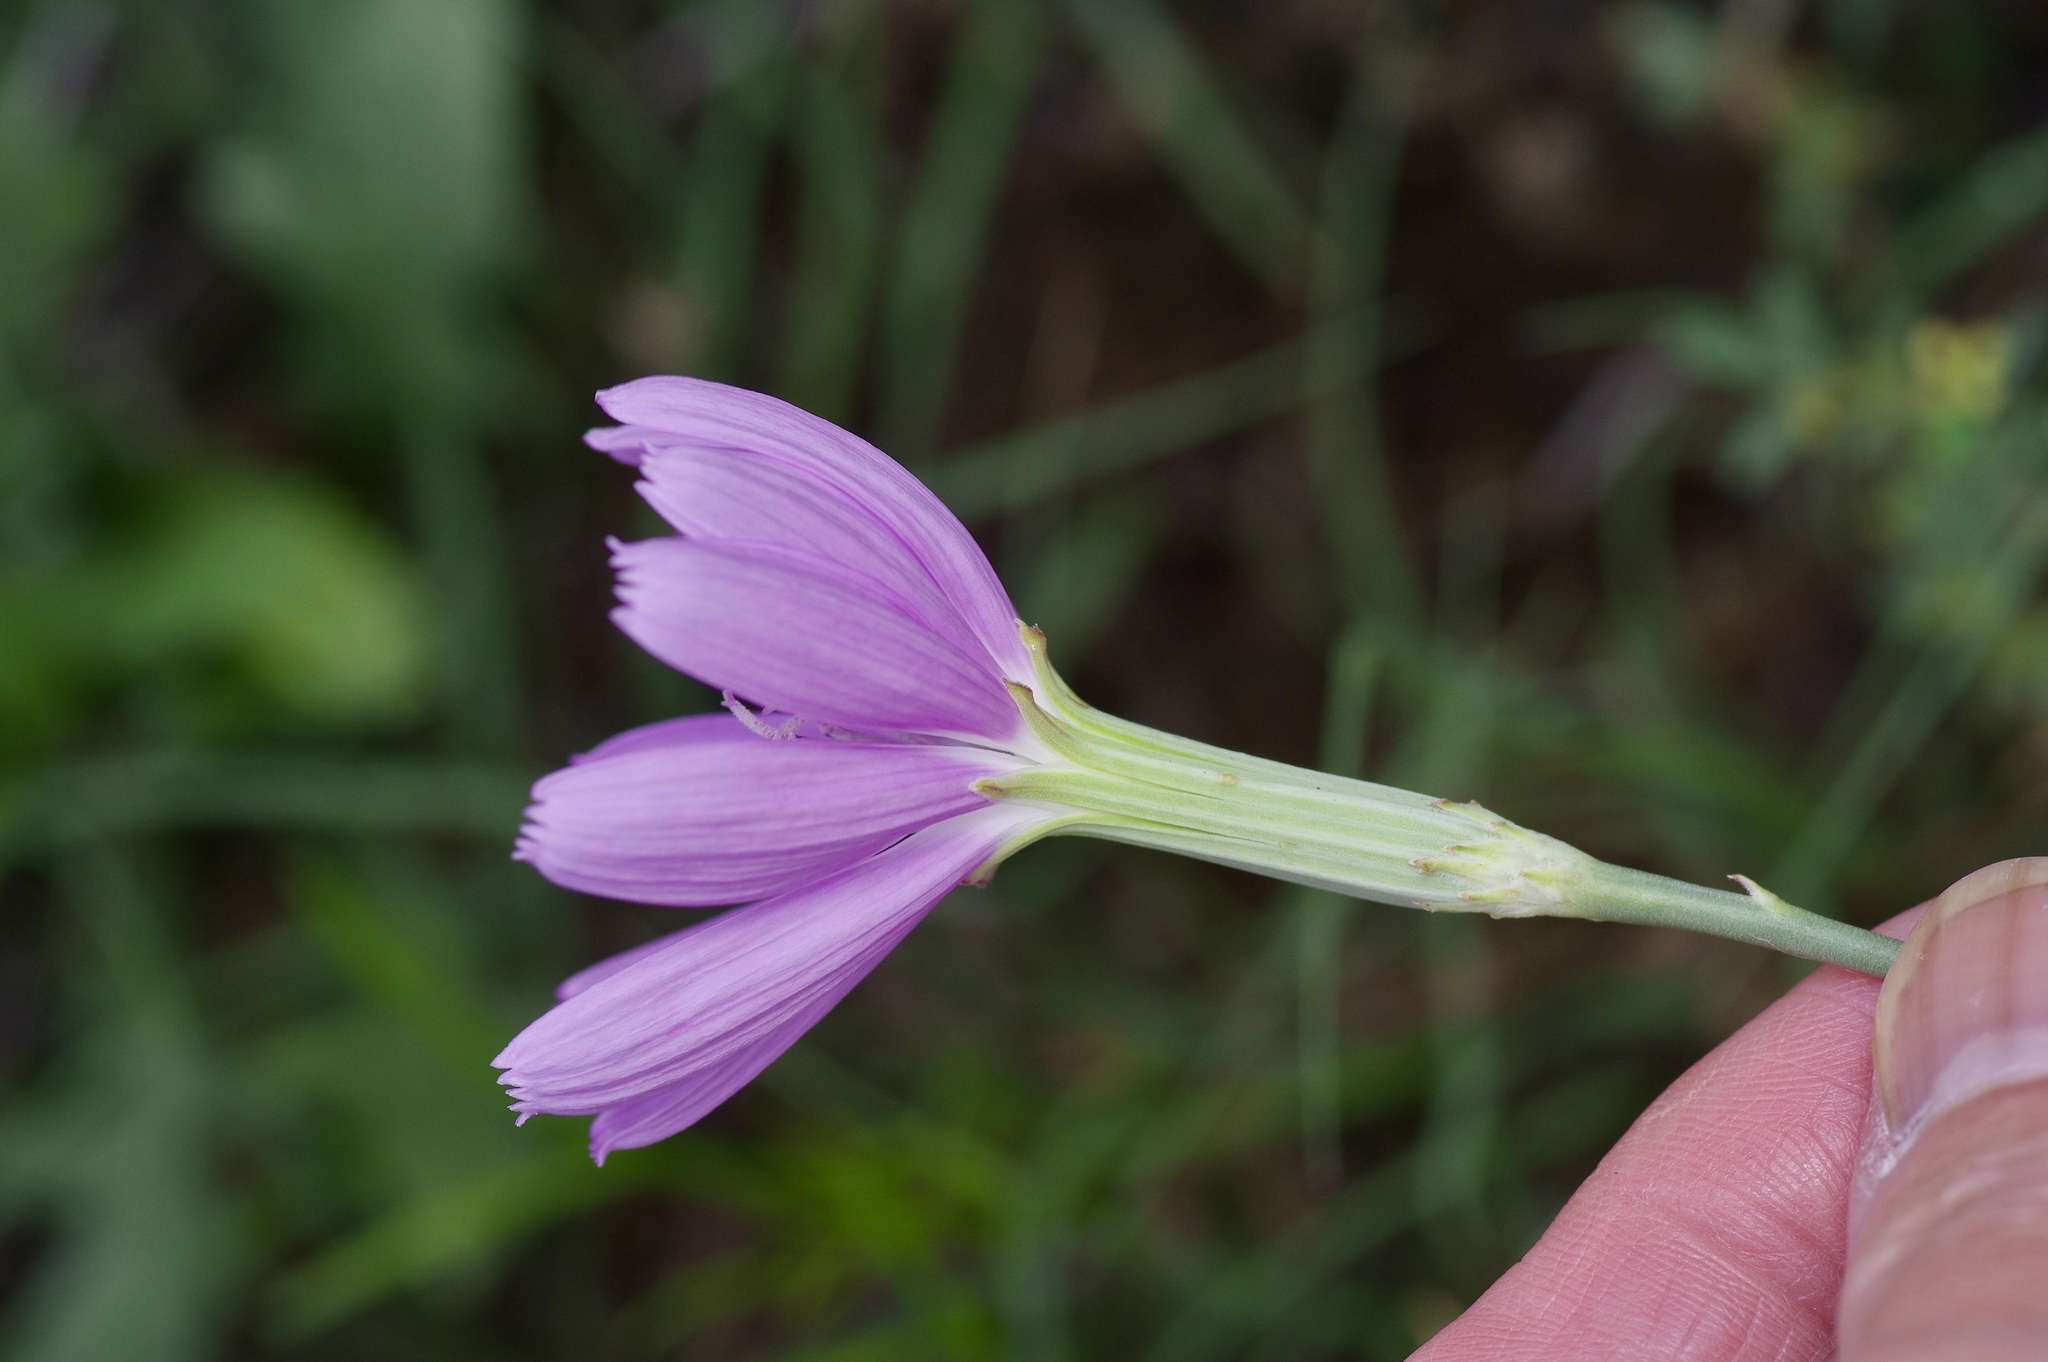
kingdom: Plantae
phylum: Tracheophyta
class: Magnoliopsida
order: Asterales
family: Asteraceae
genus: Lygodesmia
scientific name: Lygodesmia texana
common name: Texas skeleton-plant
